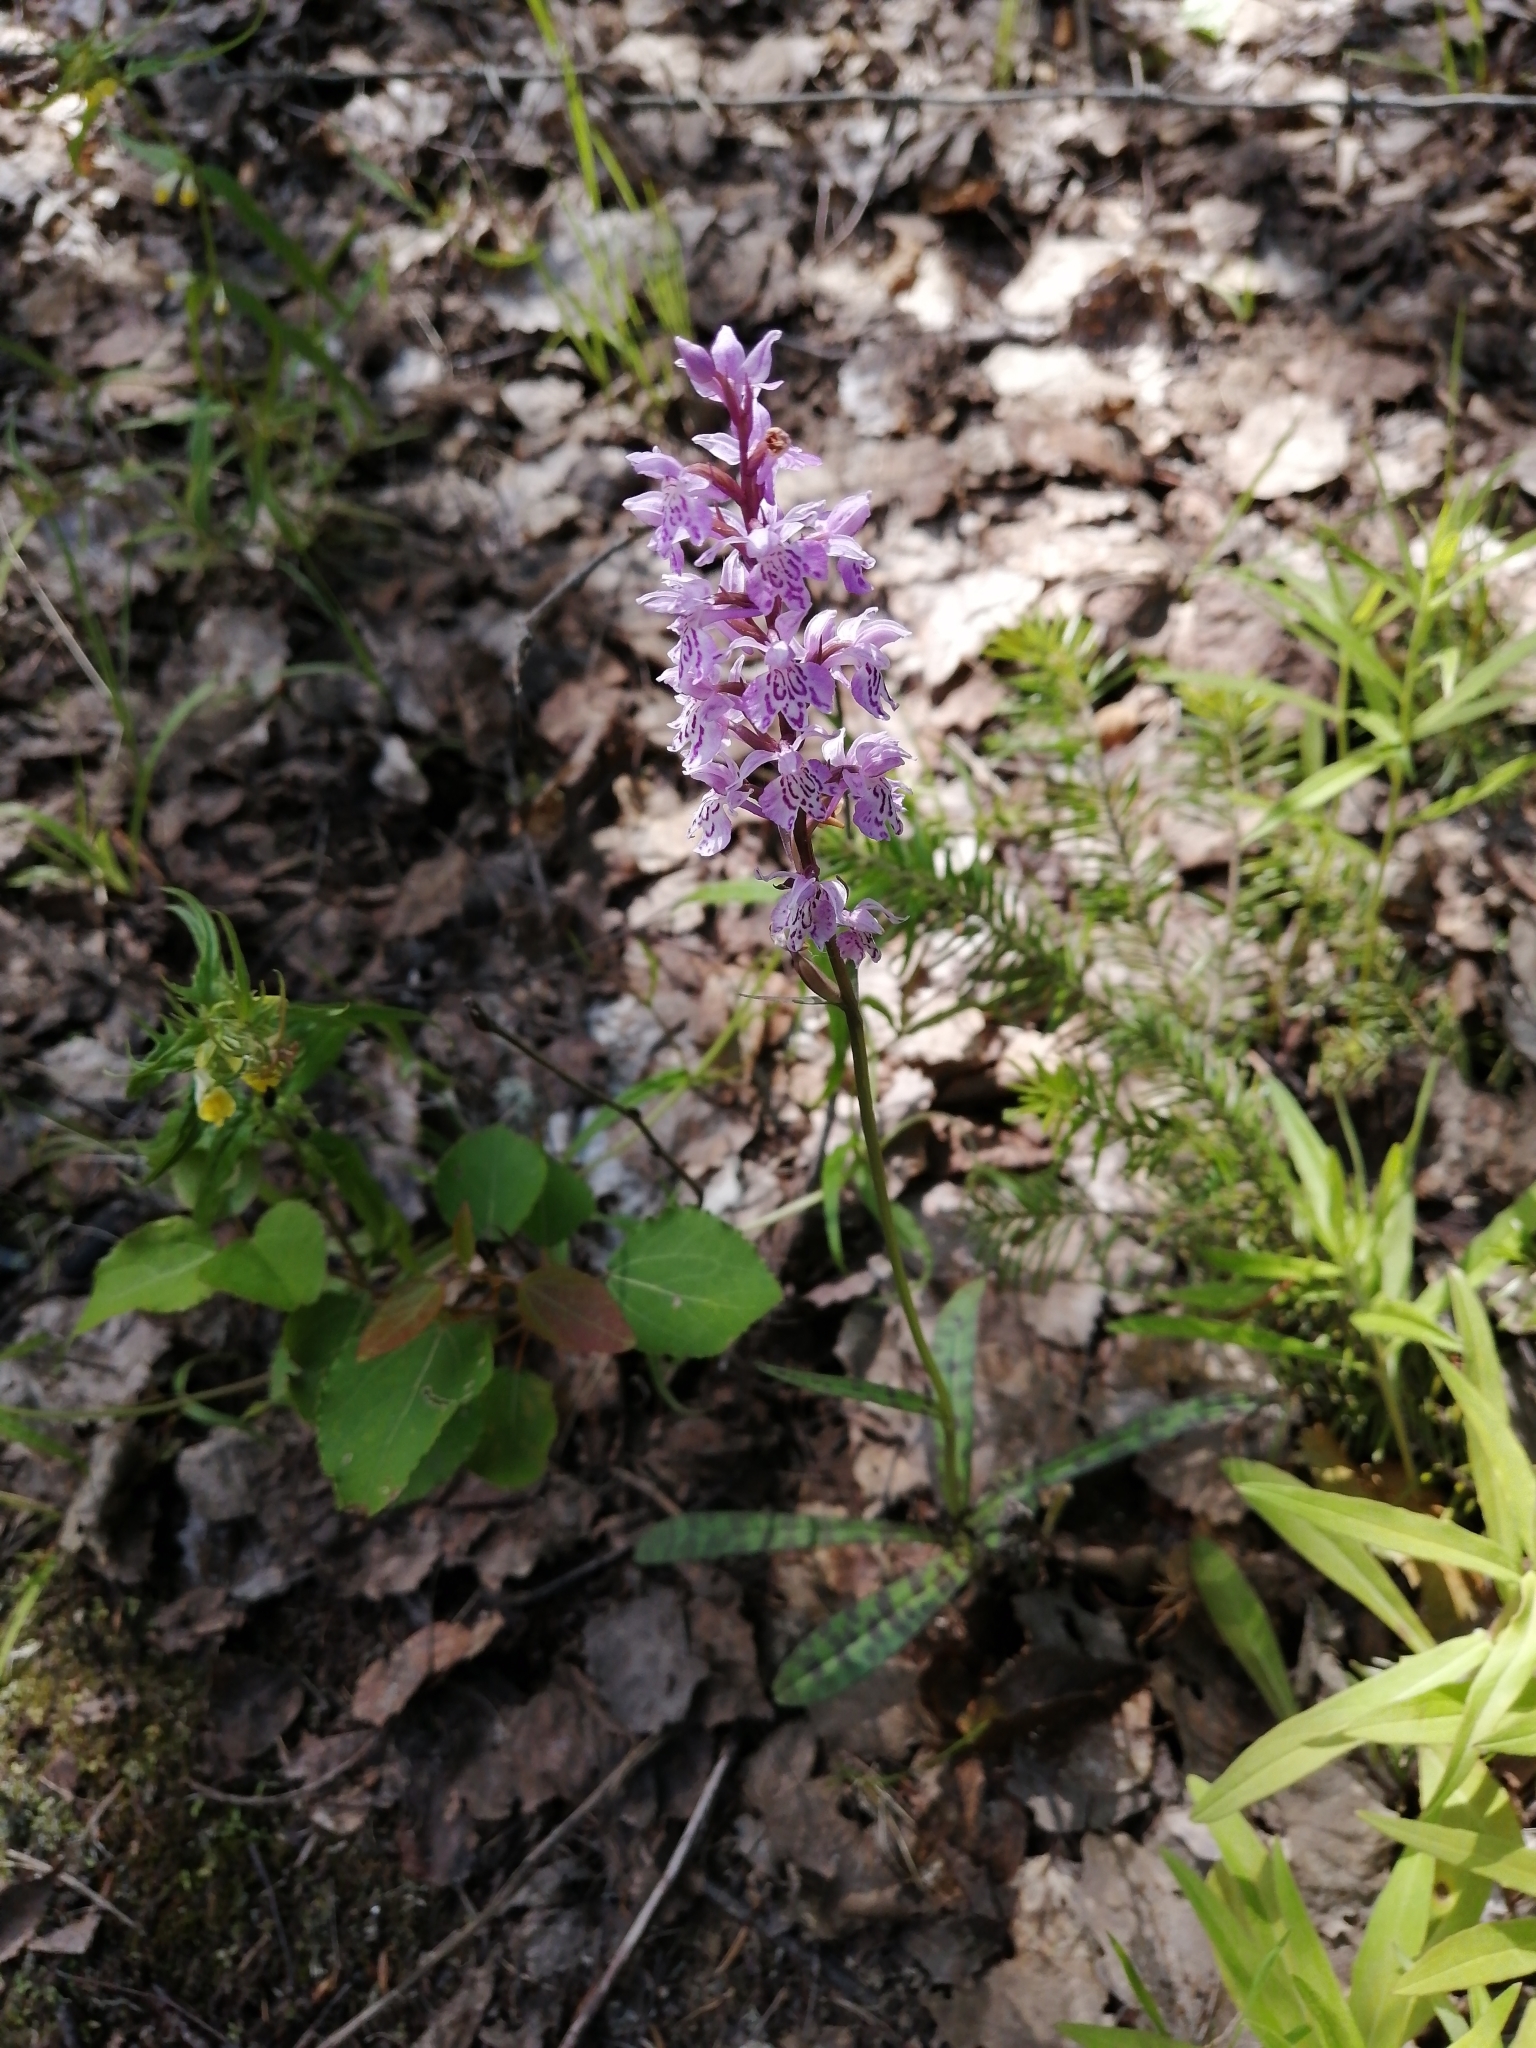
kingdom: Plantae
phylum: Tracheophyta
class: Liliopsida
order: Asparagales
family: Orchidaceae
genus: Dactylorhiza
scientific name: Dactylorhiza maculata
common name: Heath spotted-orchid
